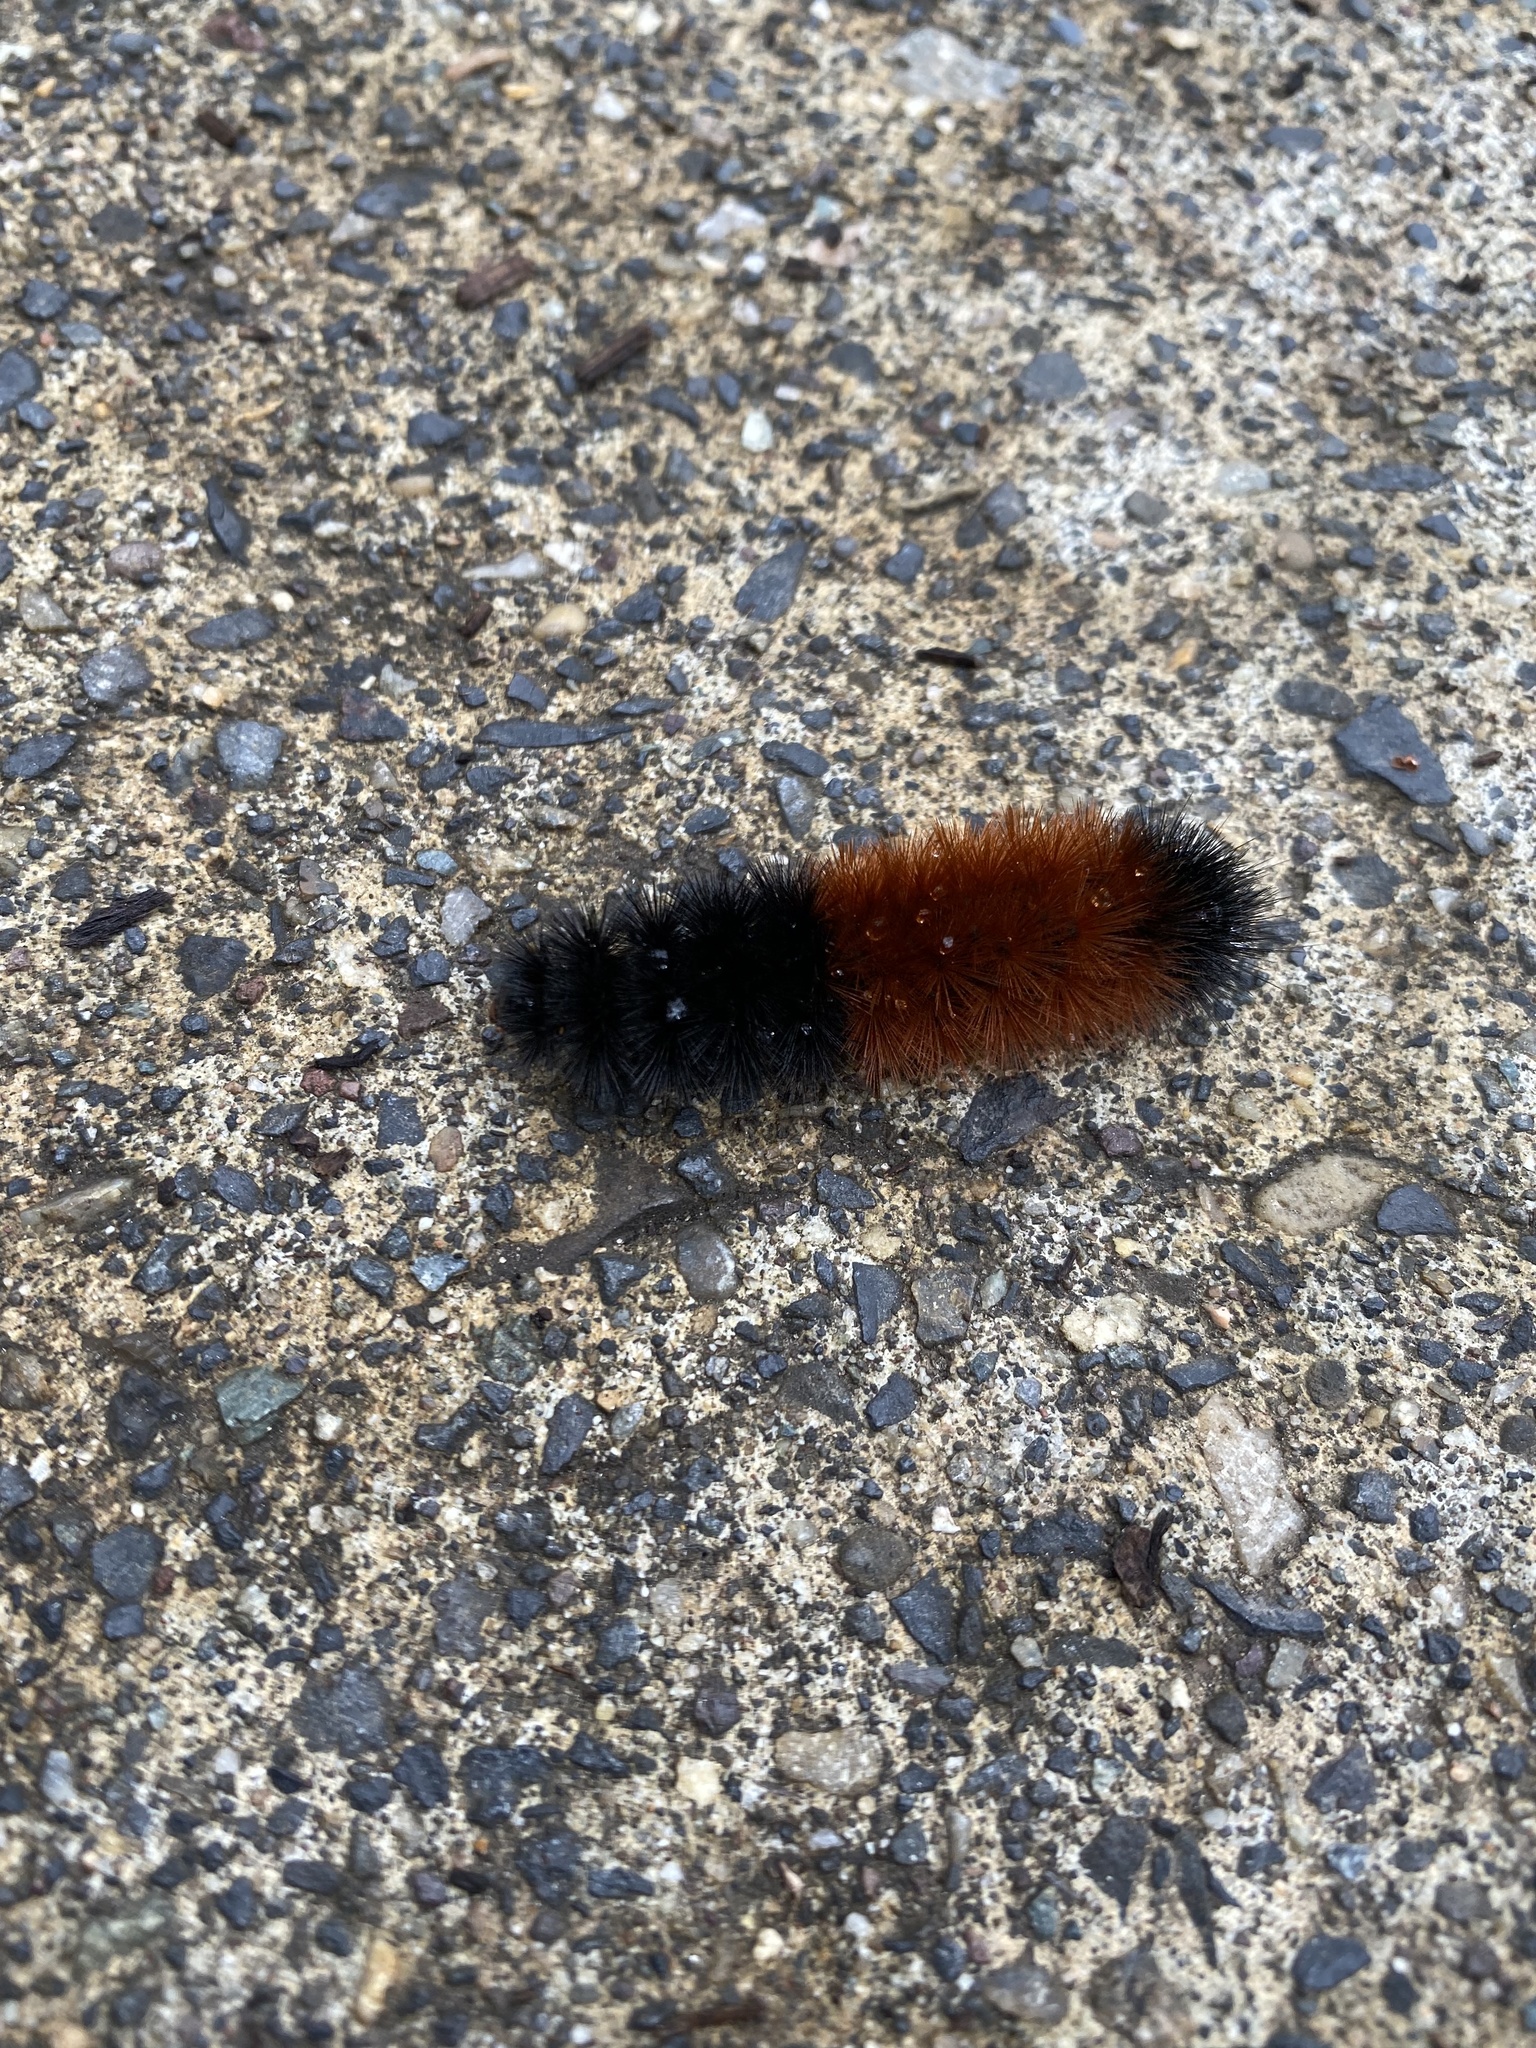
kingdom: Animalia
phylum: Arthropoda
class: Insecta
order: Lepidoptera
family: Erebidae
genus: Pyrrharctia
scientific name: Pyrrharctia isabella
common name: Isabella tiger moth
